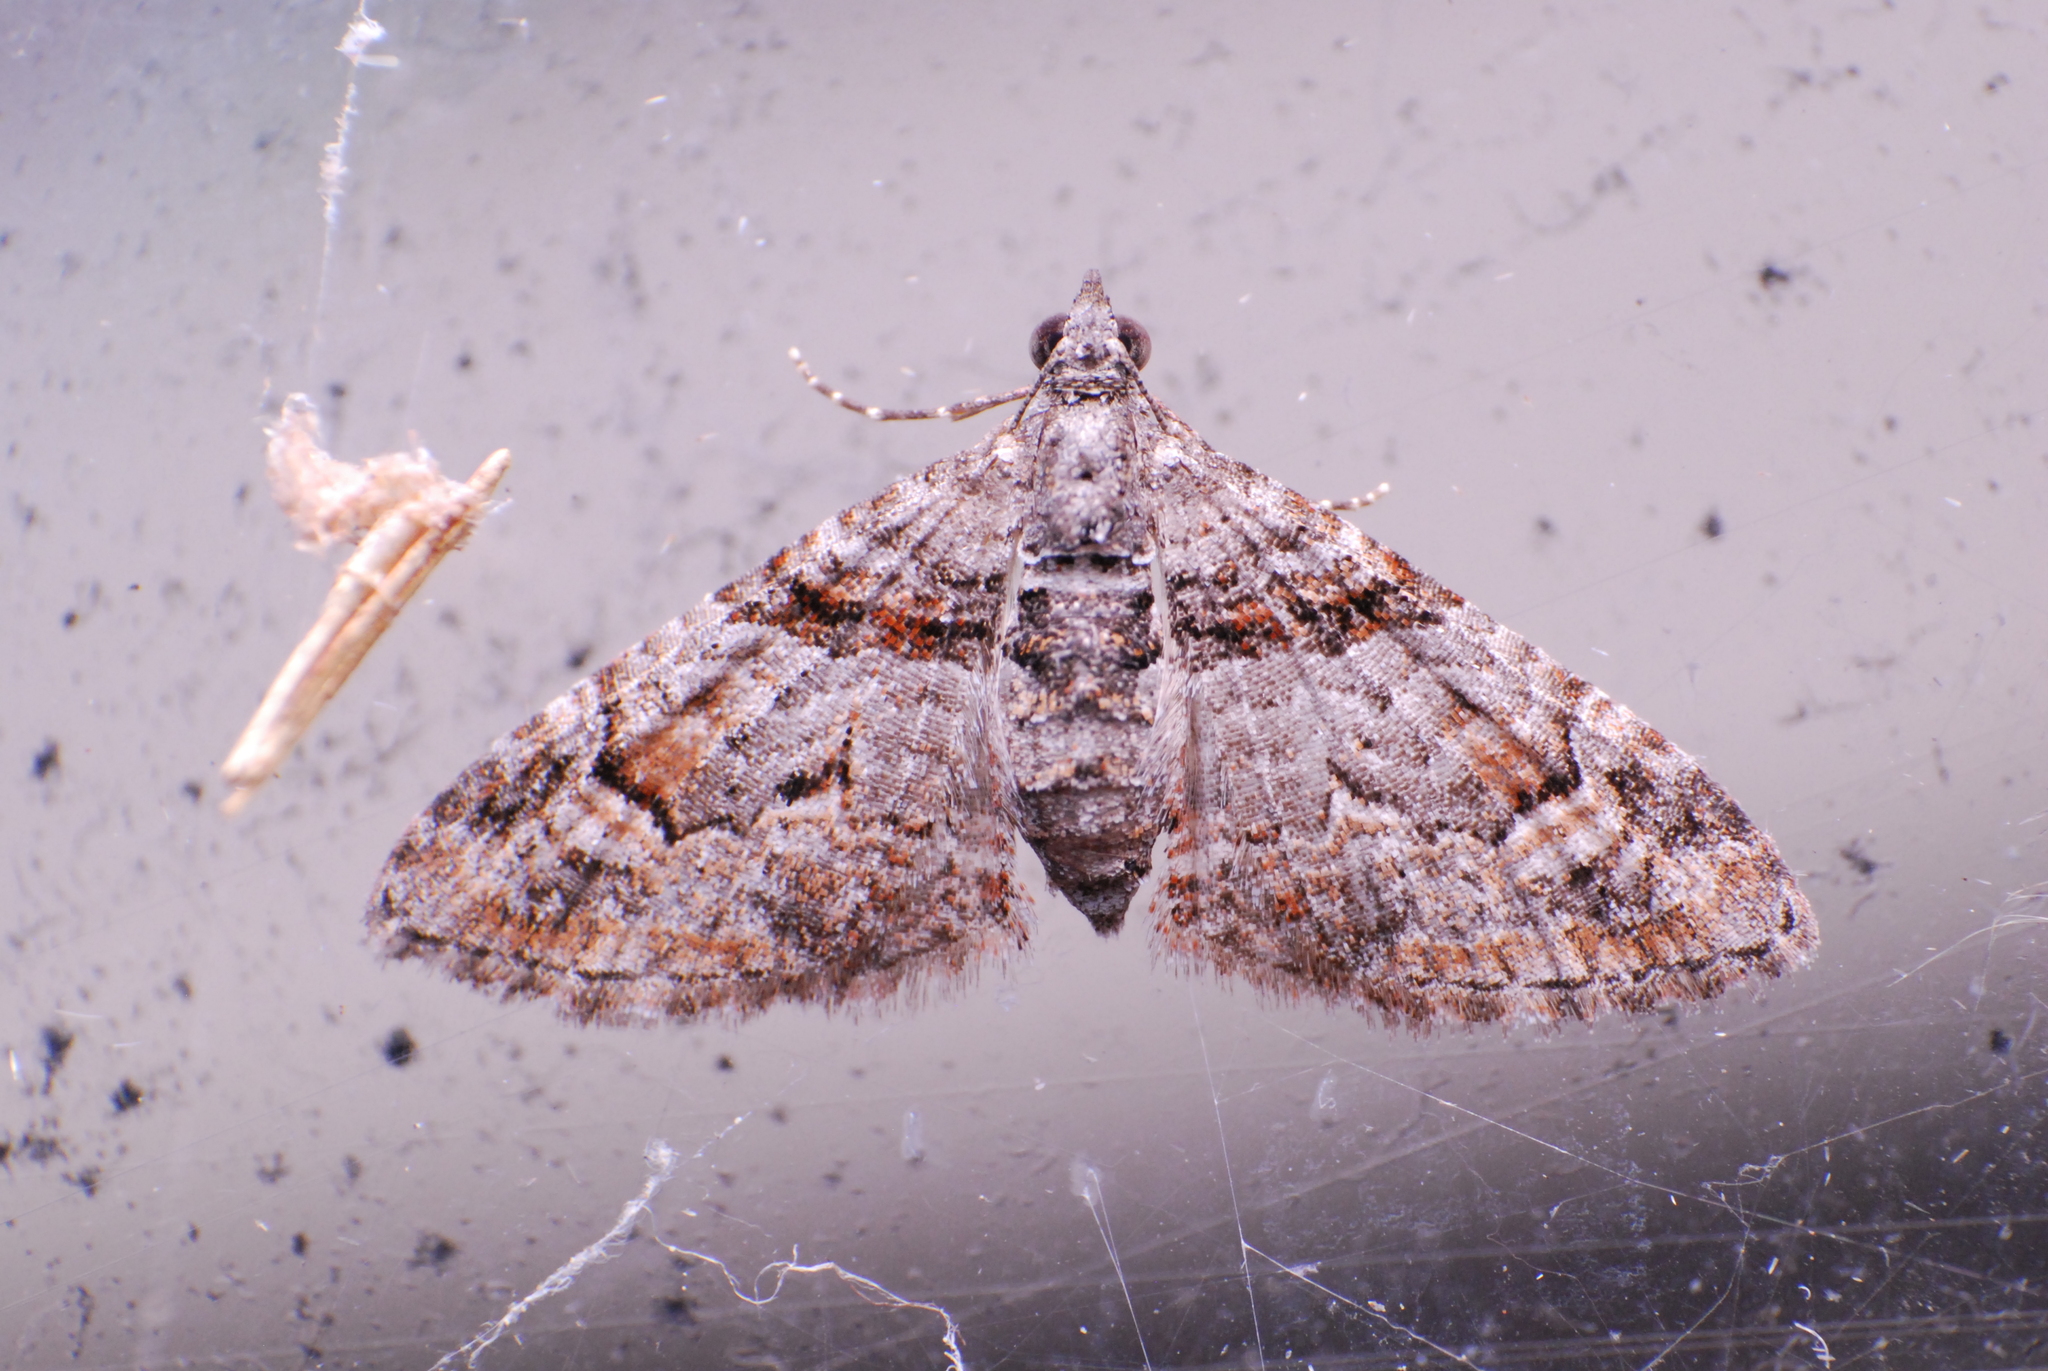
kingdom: Animalia
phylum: Arthropoda
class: Insecta
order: Lepidoptera
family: Geometridae
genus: Phrissogonus
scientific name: Phrissogonus laticostata
